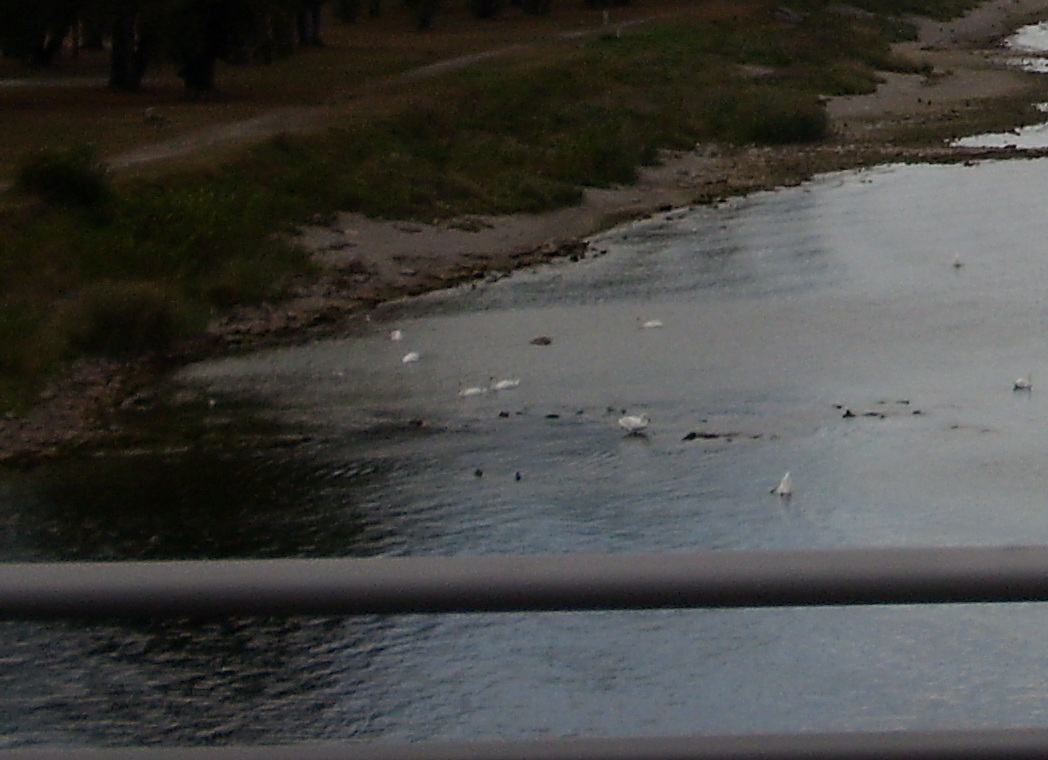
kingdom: Animalia
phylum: Chordata
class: Aves
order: Anseriformes
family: Anatidae
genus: Cygnus
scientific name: Cygnus olor
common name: Mute swan
